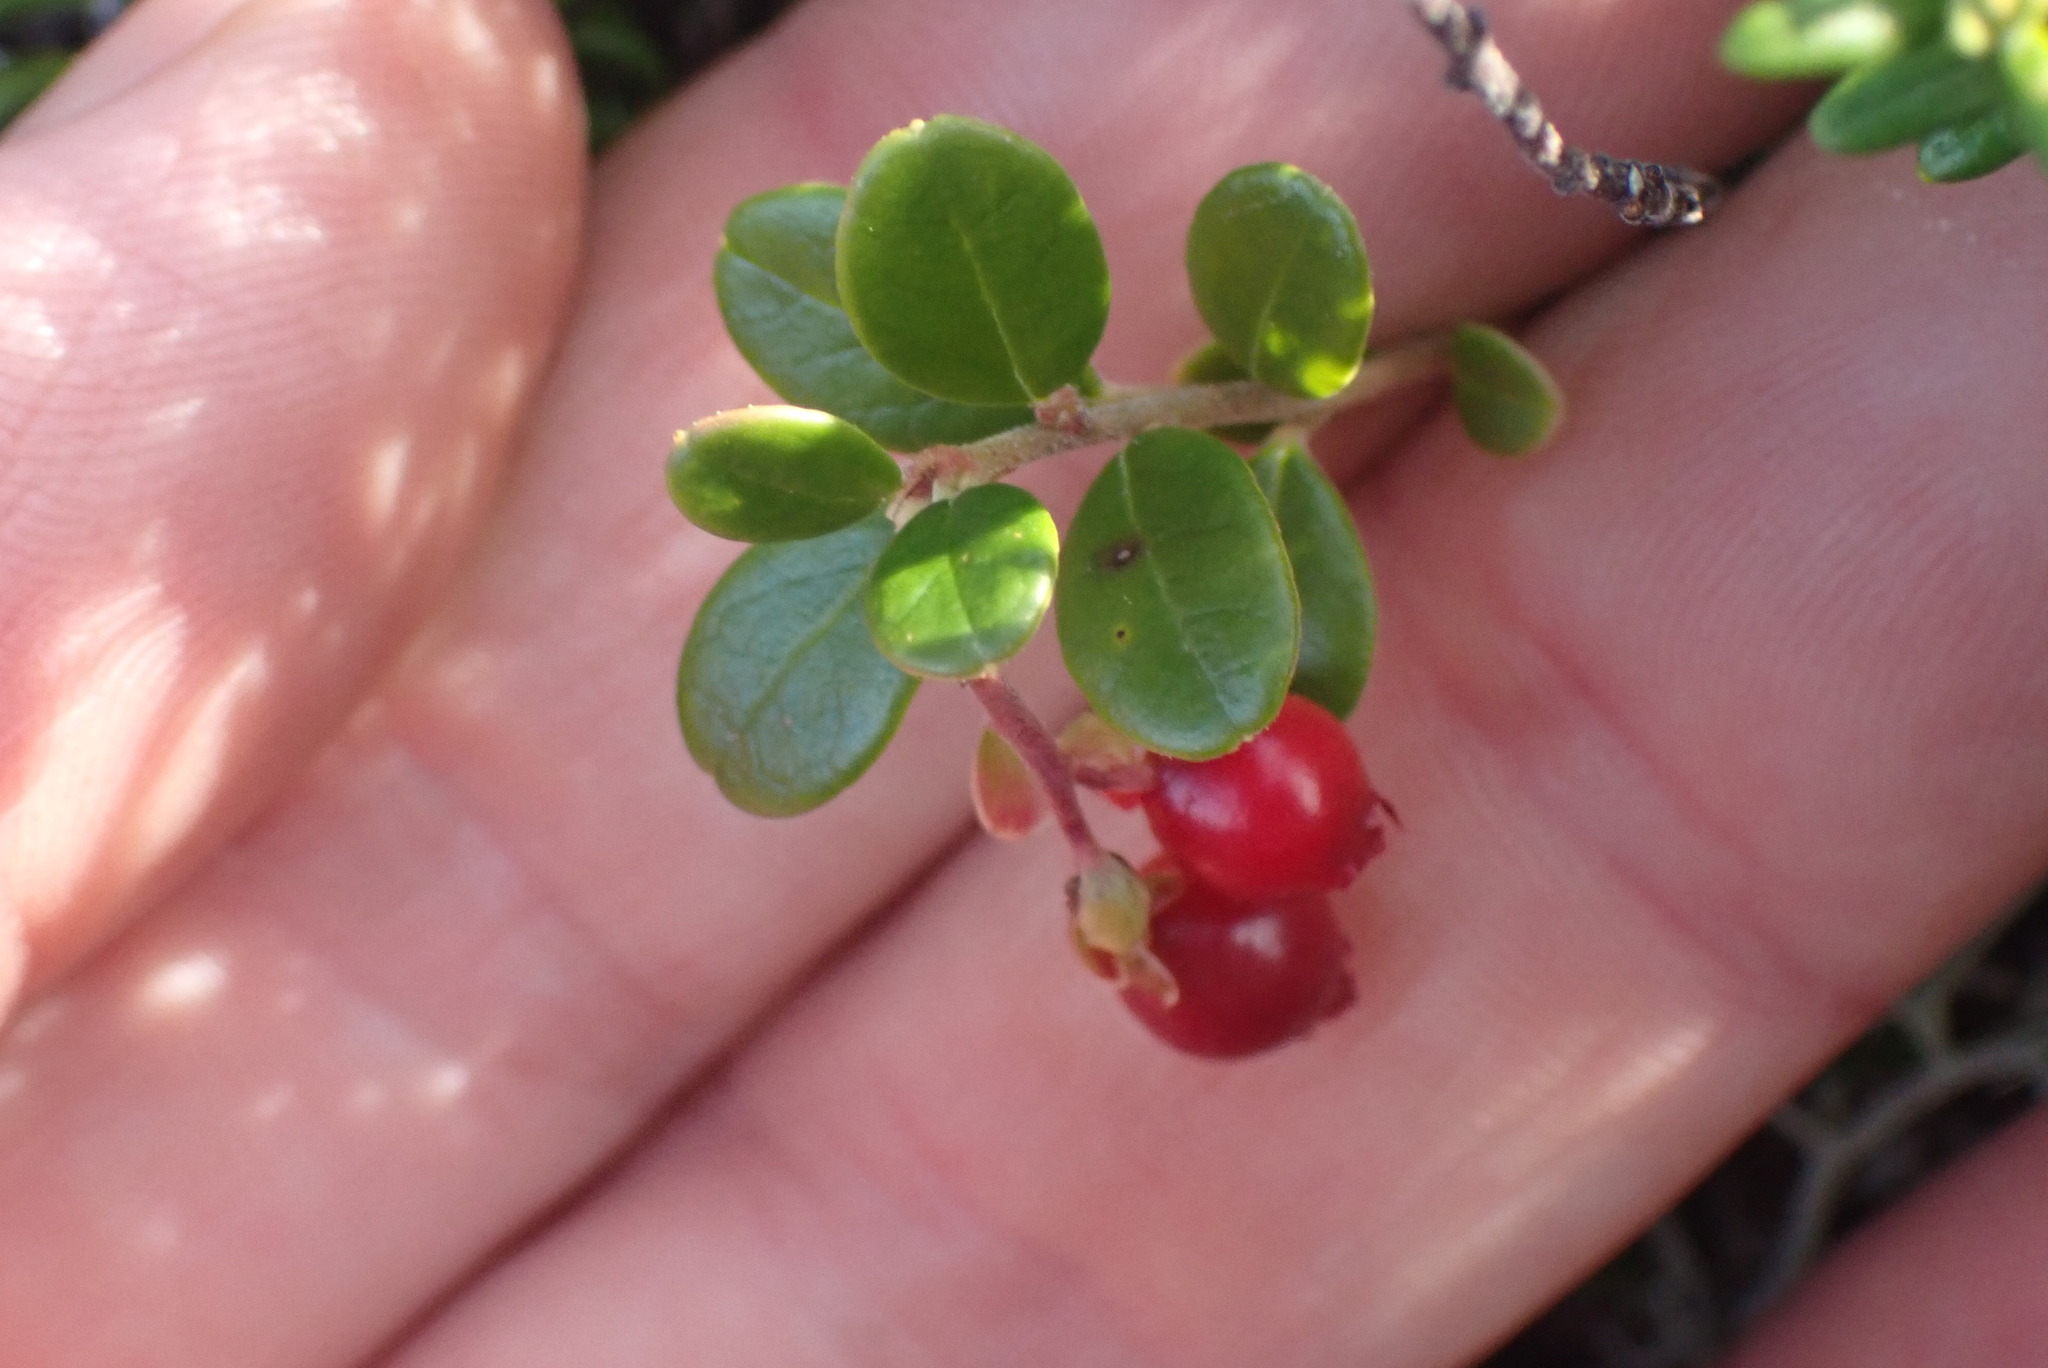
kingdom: Plantae
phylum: Tracheophyta
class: Magnoliopsida
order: Ericales
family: Ericaceae
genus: Vaccinium
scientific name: Vaccinium vitis-idaea
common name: Cowberry
